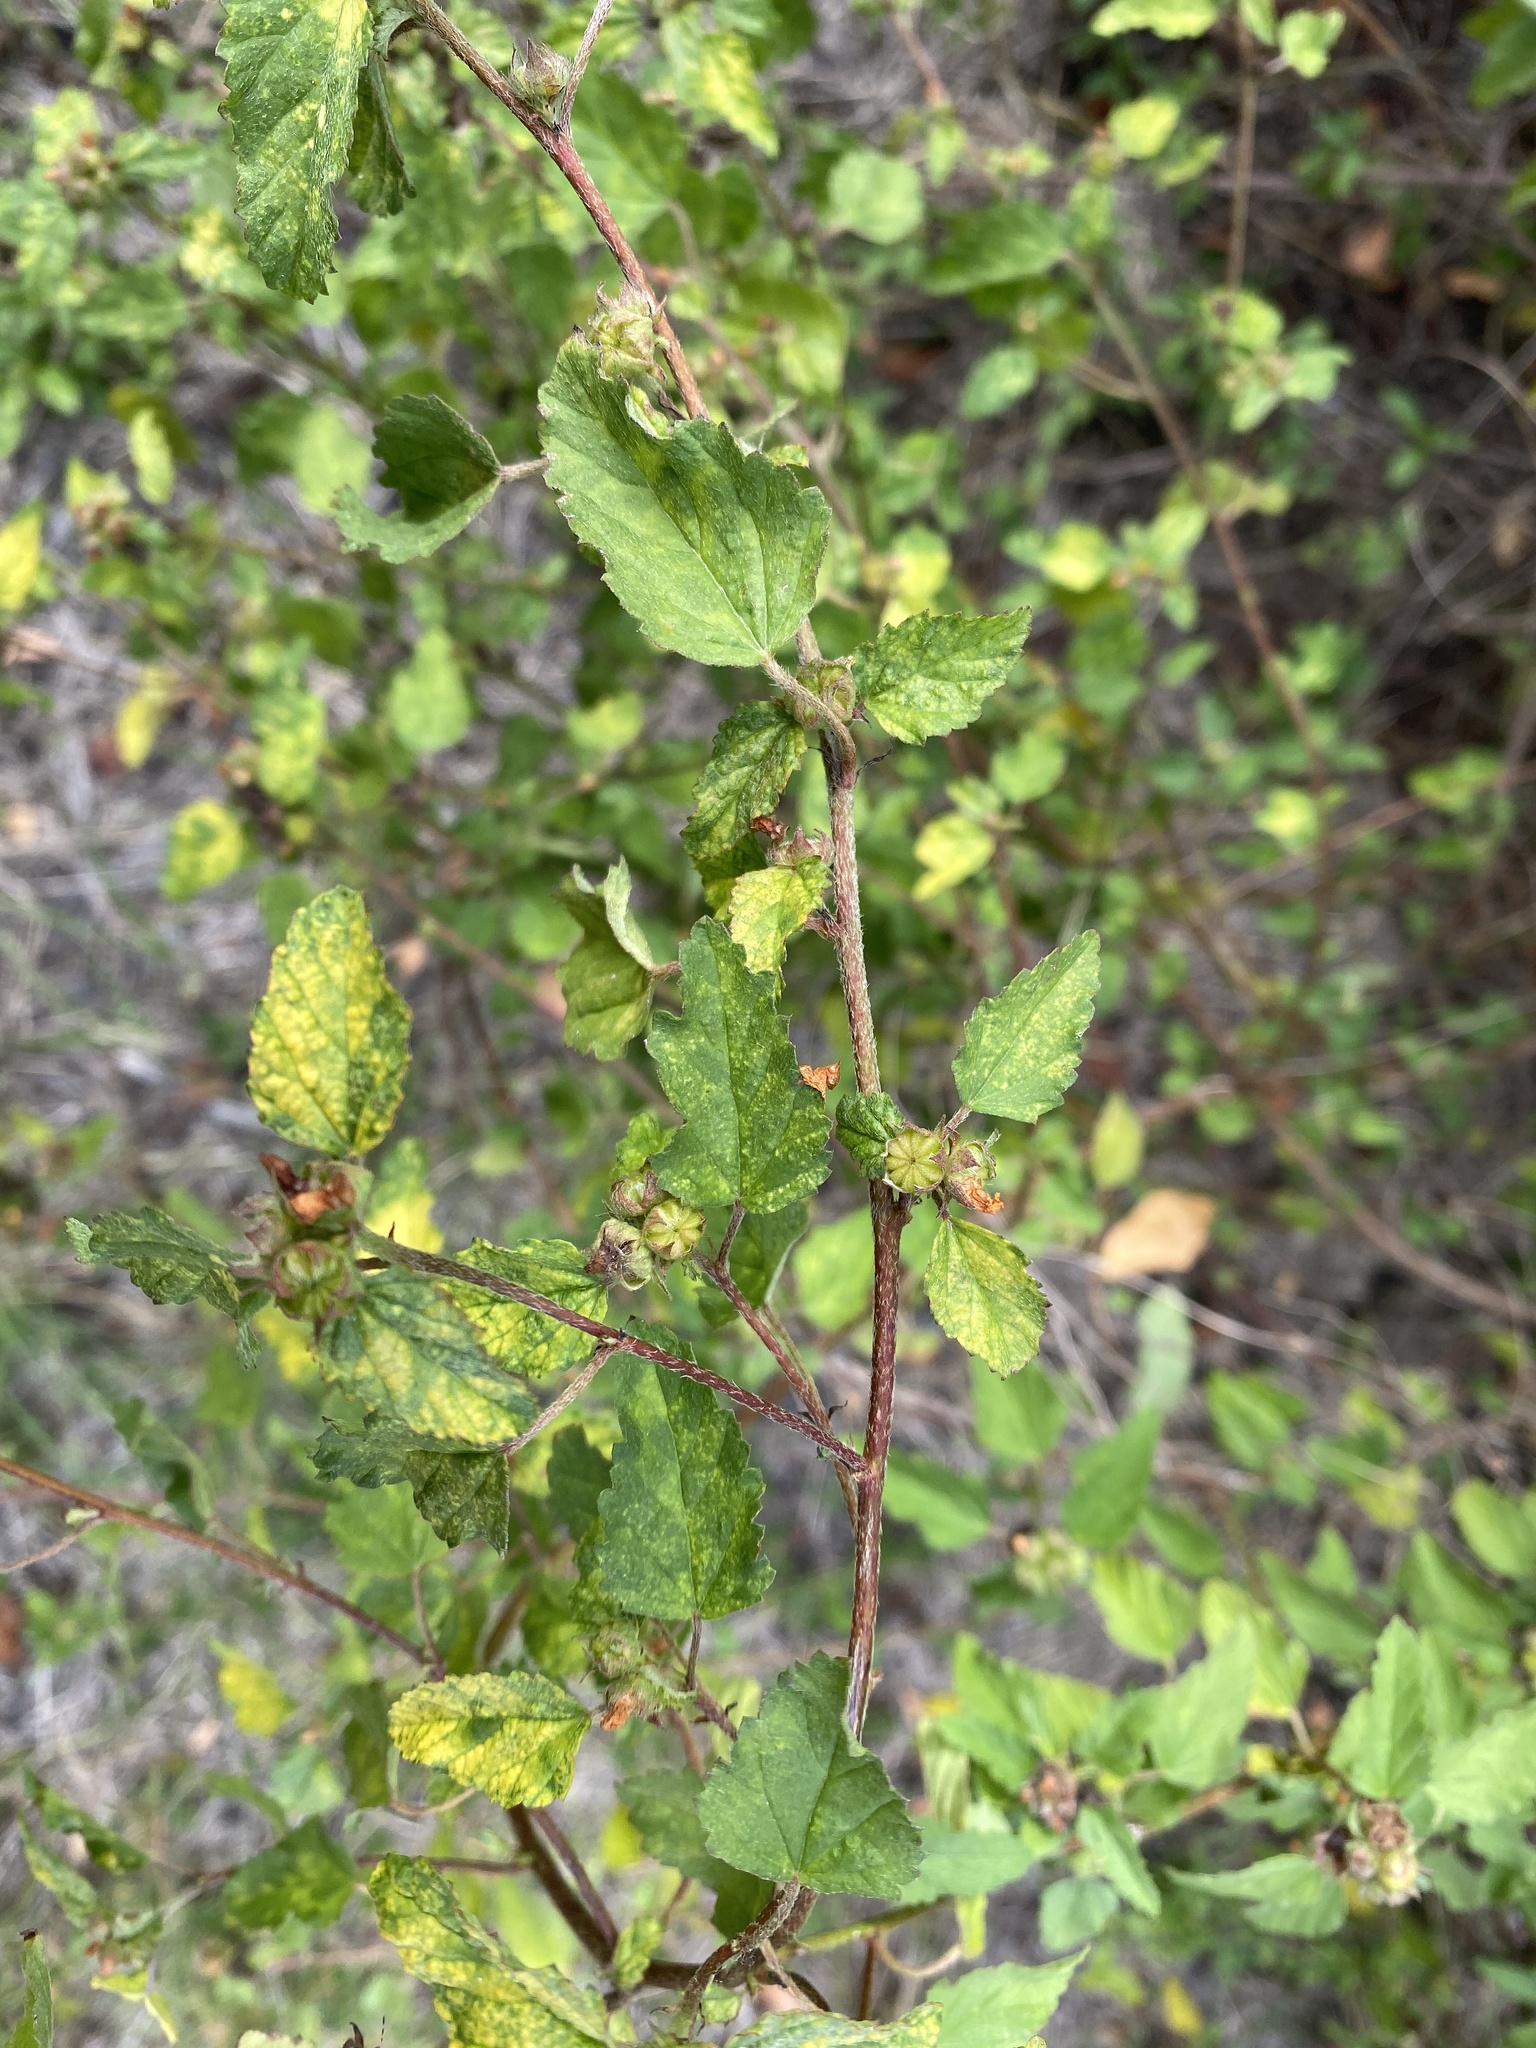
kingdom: Plantae
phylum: Tracheophyta
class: Magnoliopsida
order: Malvales
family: Malvaceae
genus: Waltheria
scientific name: Waltheria indica
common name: Leather-coat
